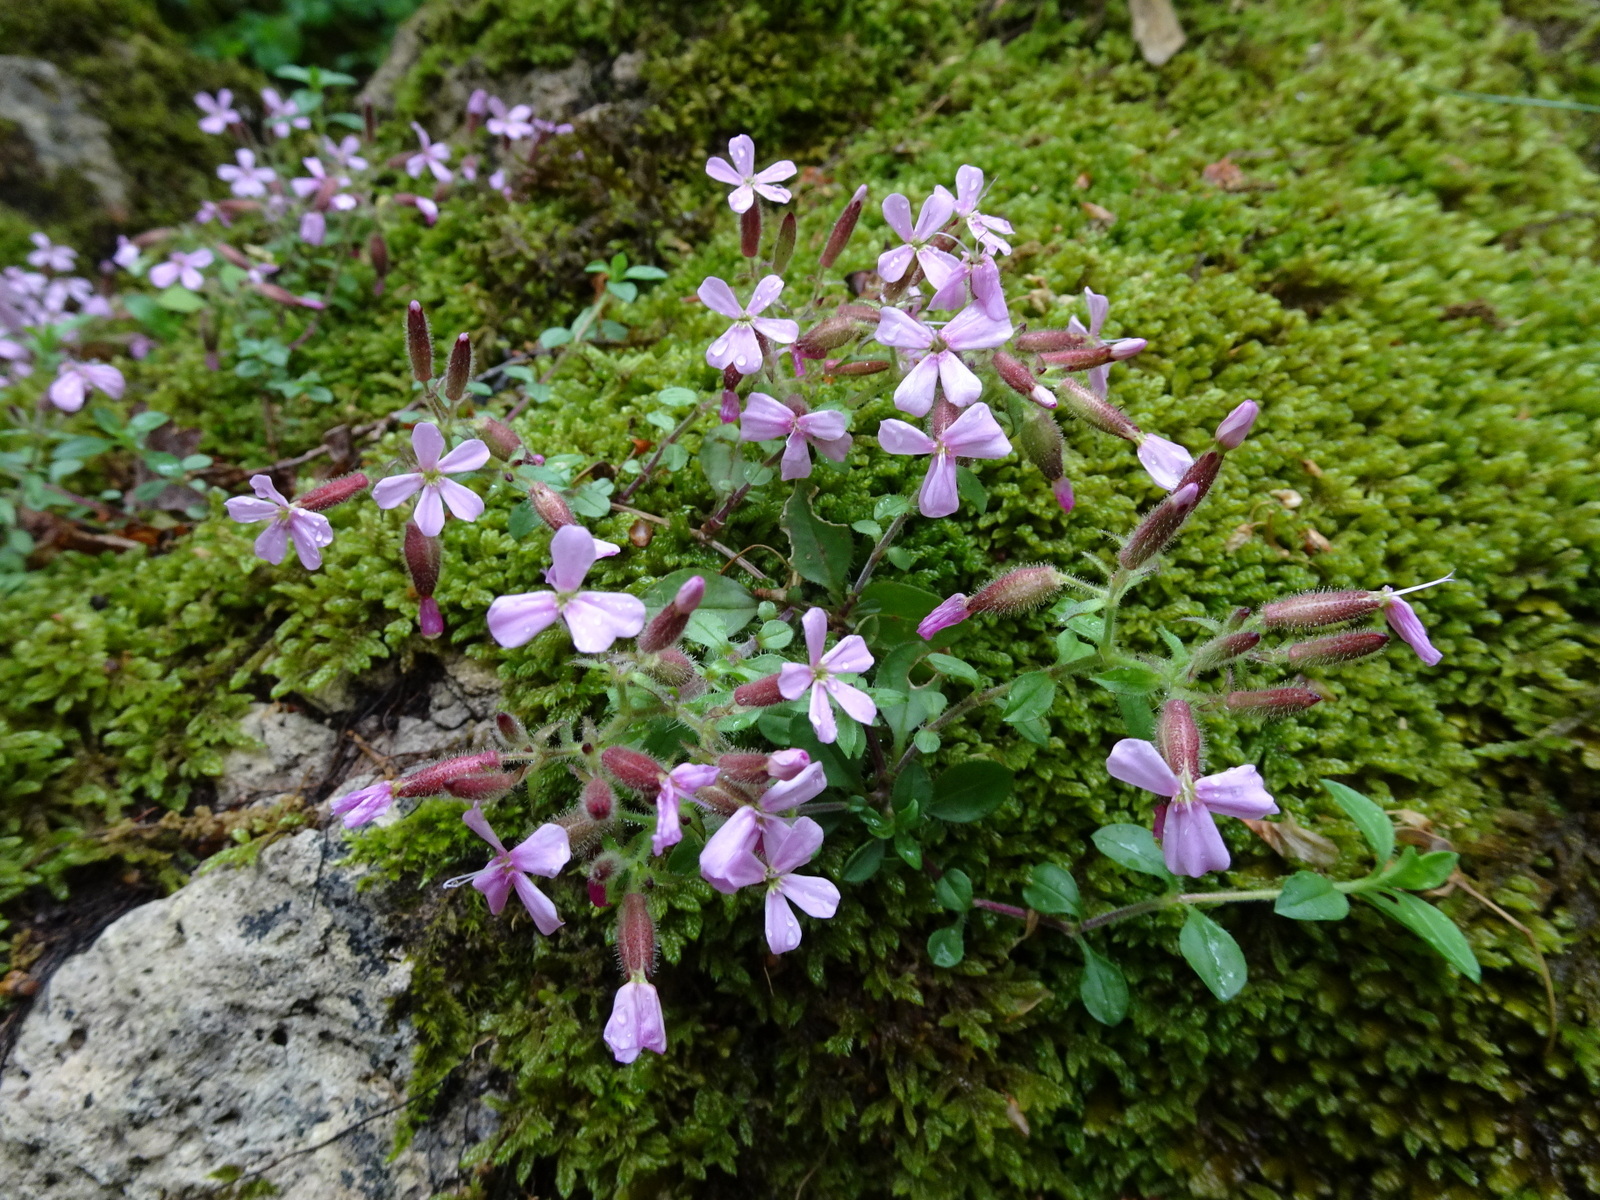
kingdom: Plantae
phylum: Tracheophyta
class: Magnoliopsida
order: Caryophyllales
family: Caryophyllaceae
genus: Saponaria
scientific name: Saponaria ocymoides
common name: Rock soapwort
